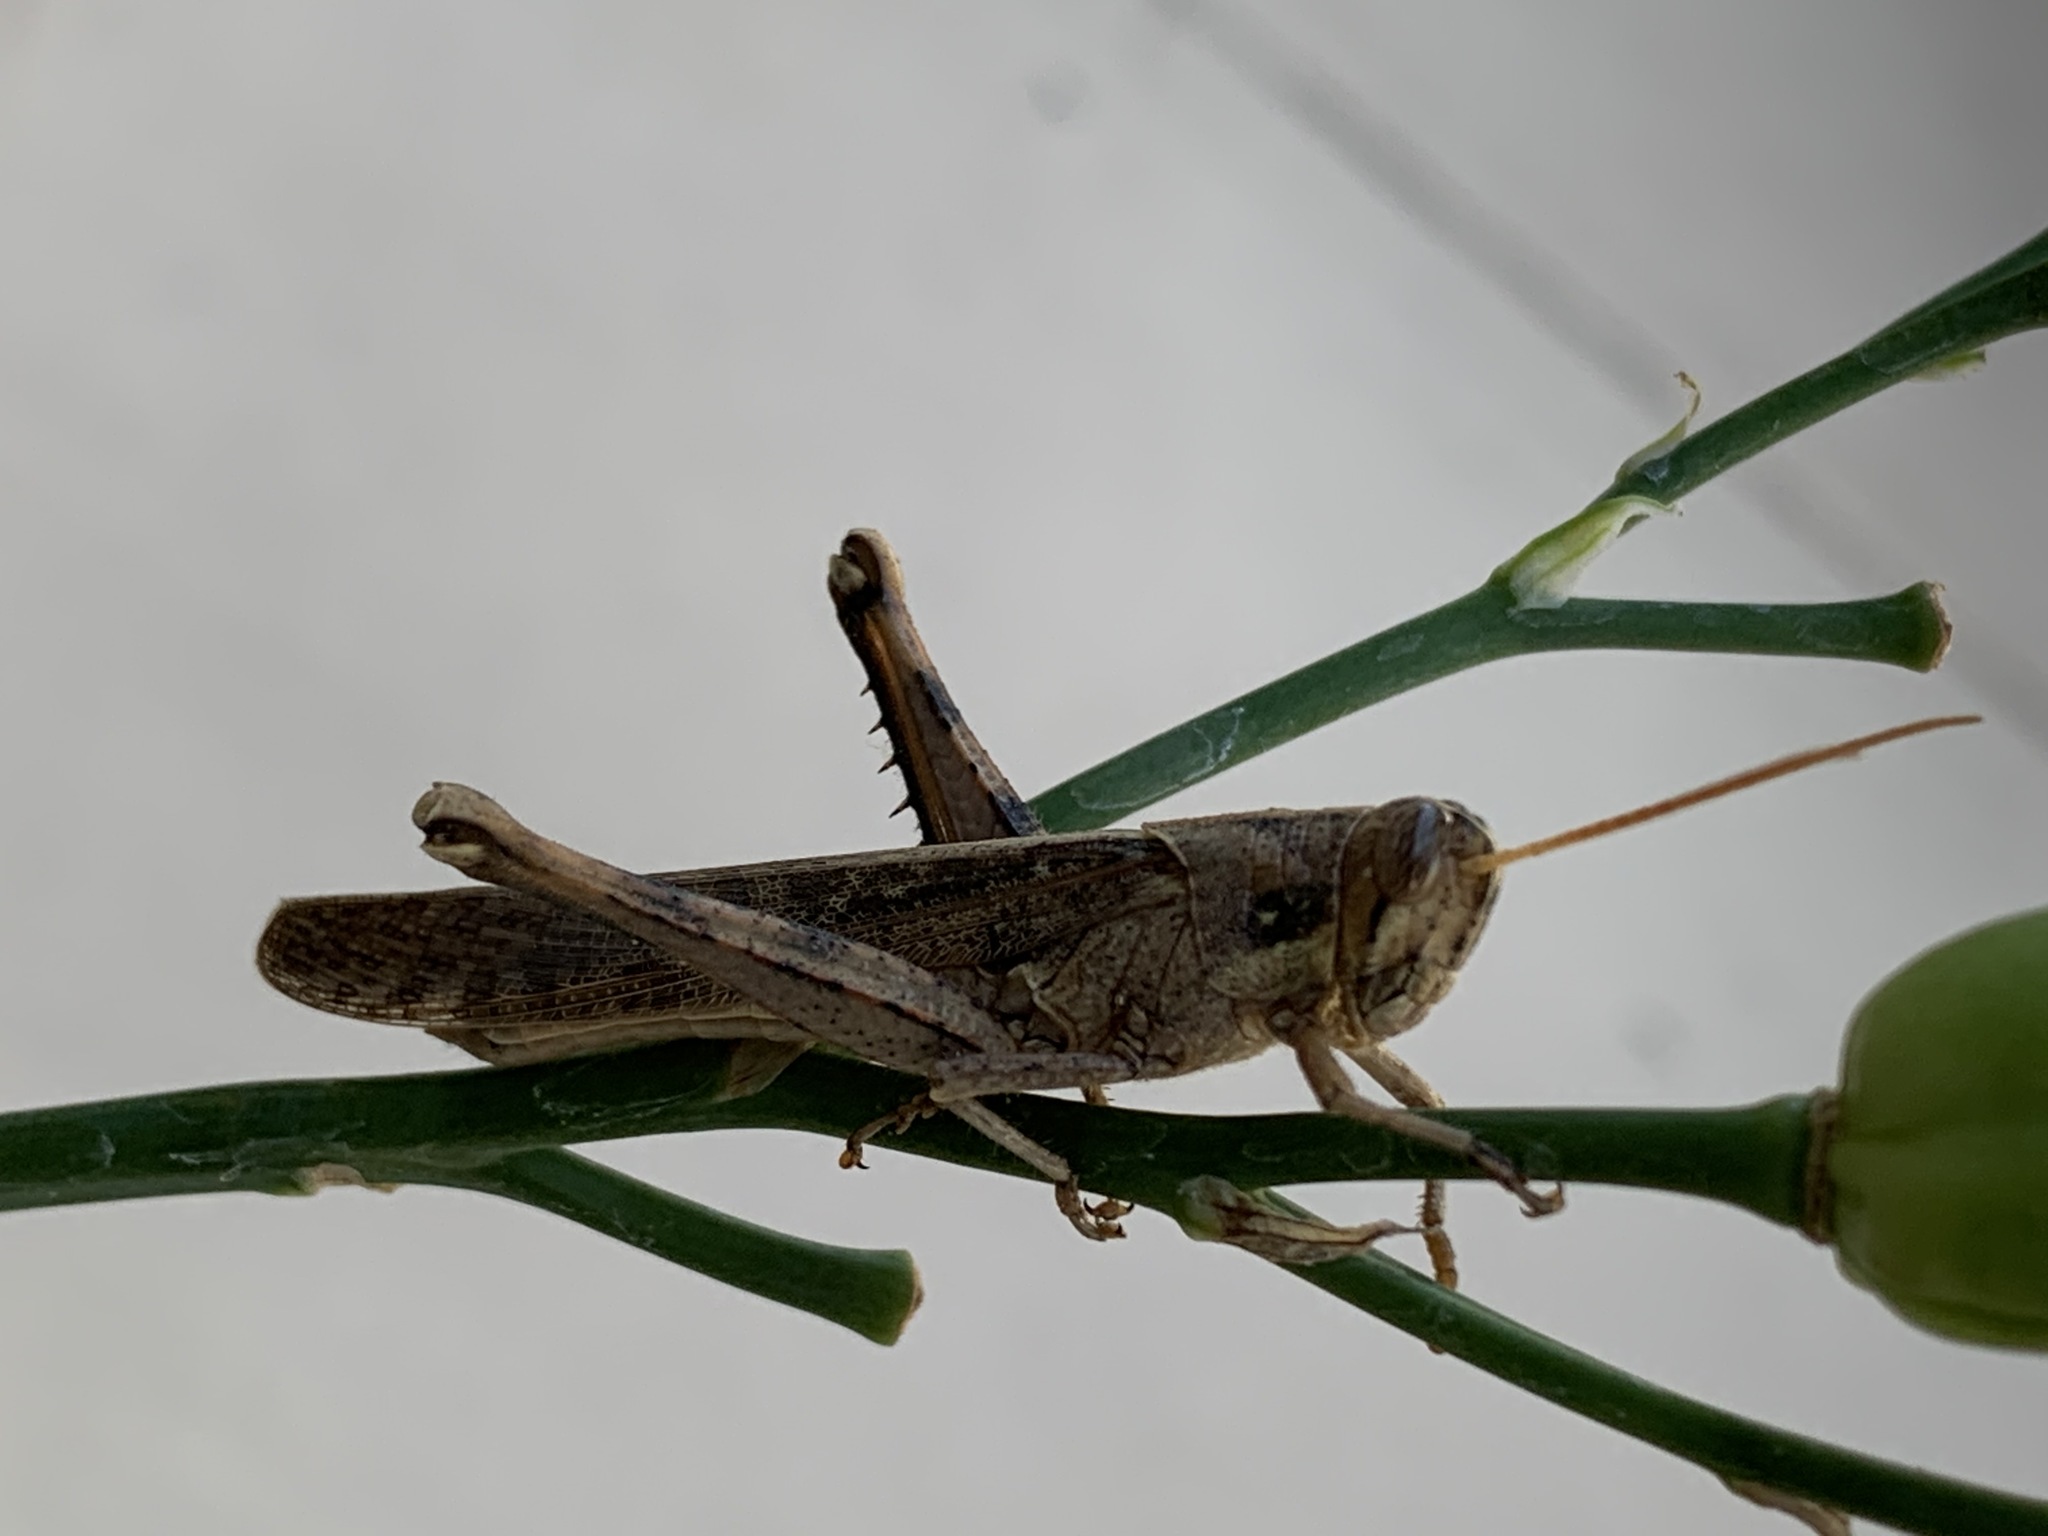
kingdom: Animalia
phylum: Arthropoda
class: Insecta
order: Orthoptera
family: Acrididae
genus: Schistocerca
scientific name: Schistocerca nitens
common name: Vagrant grasshopper
